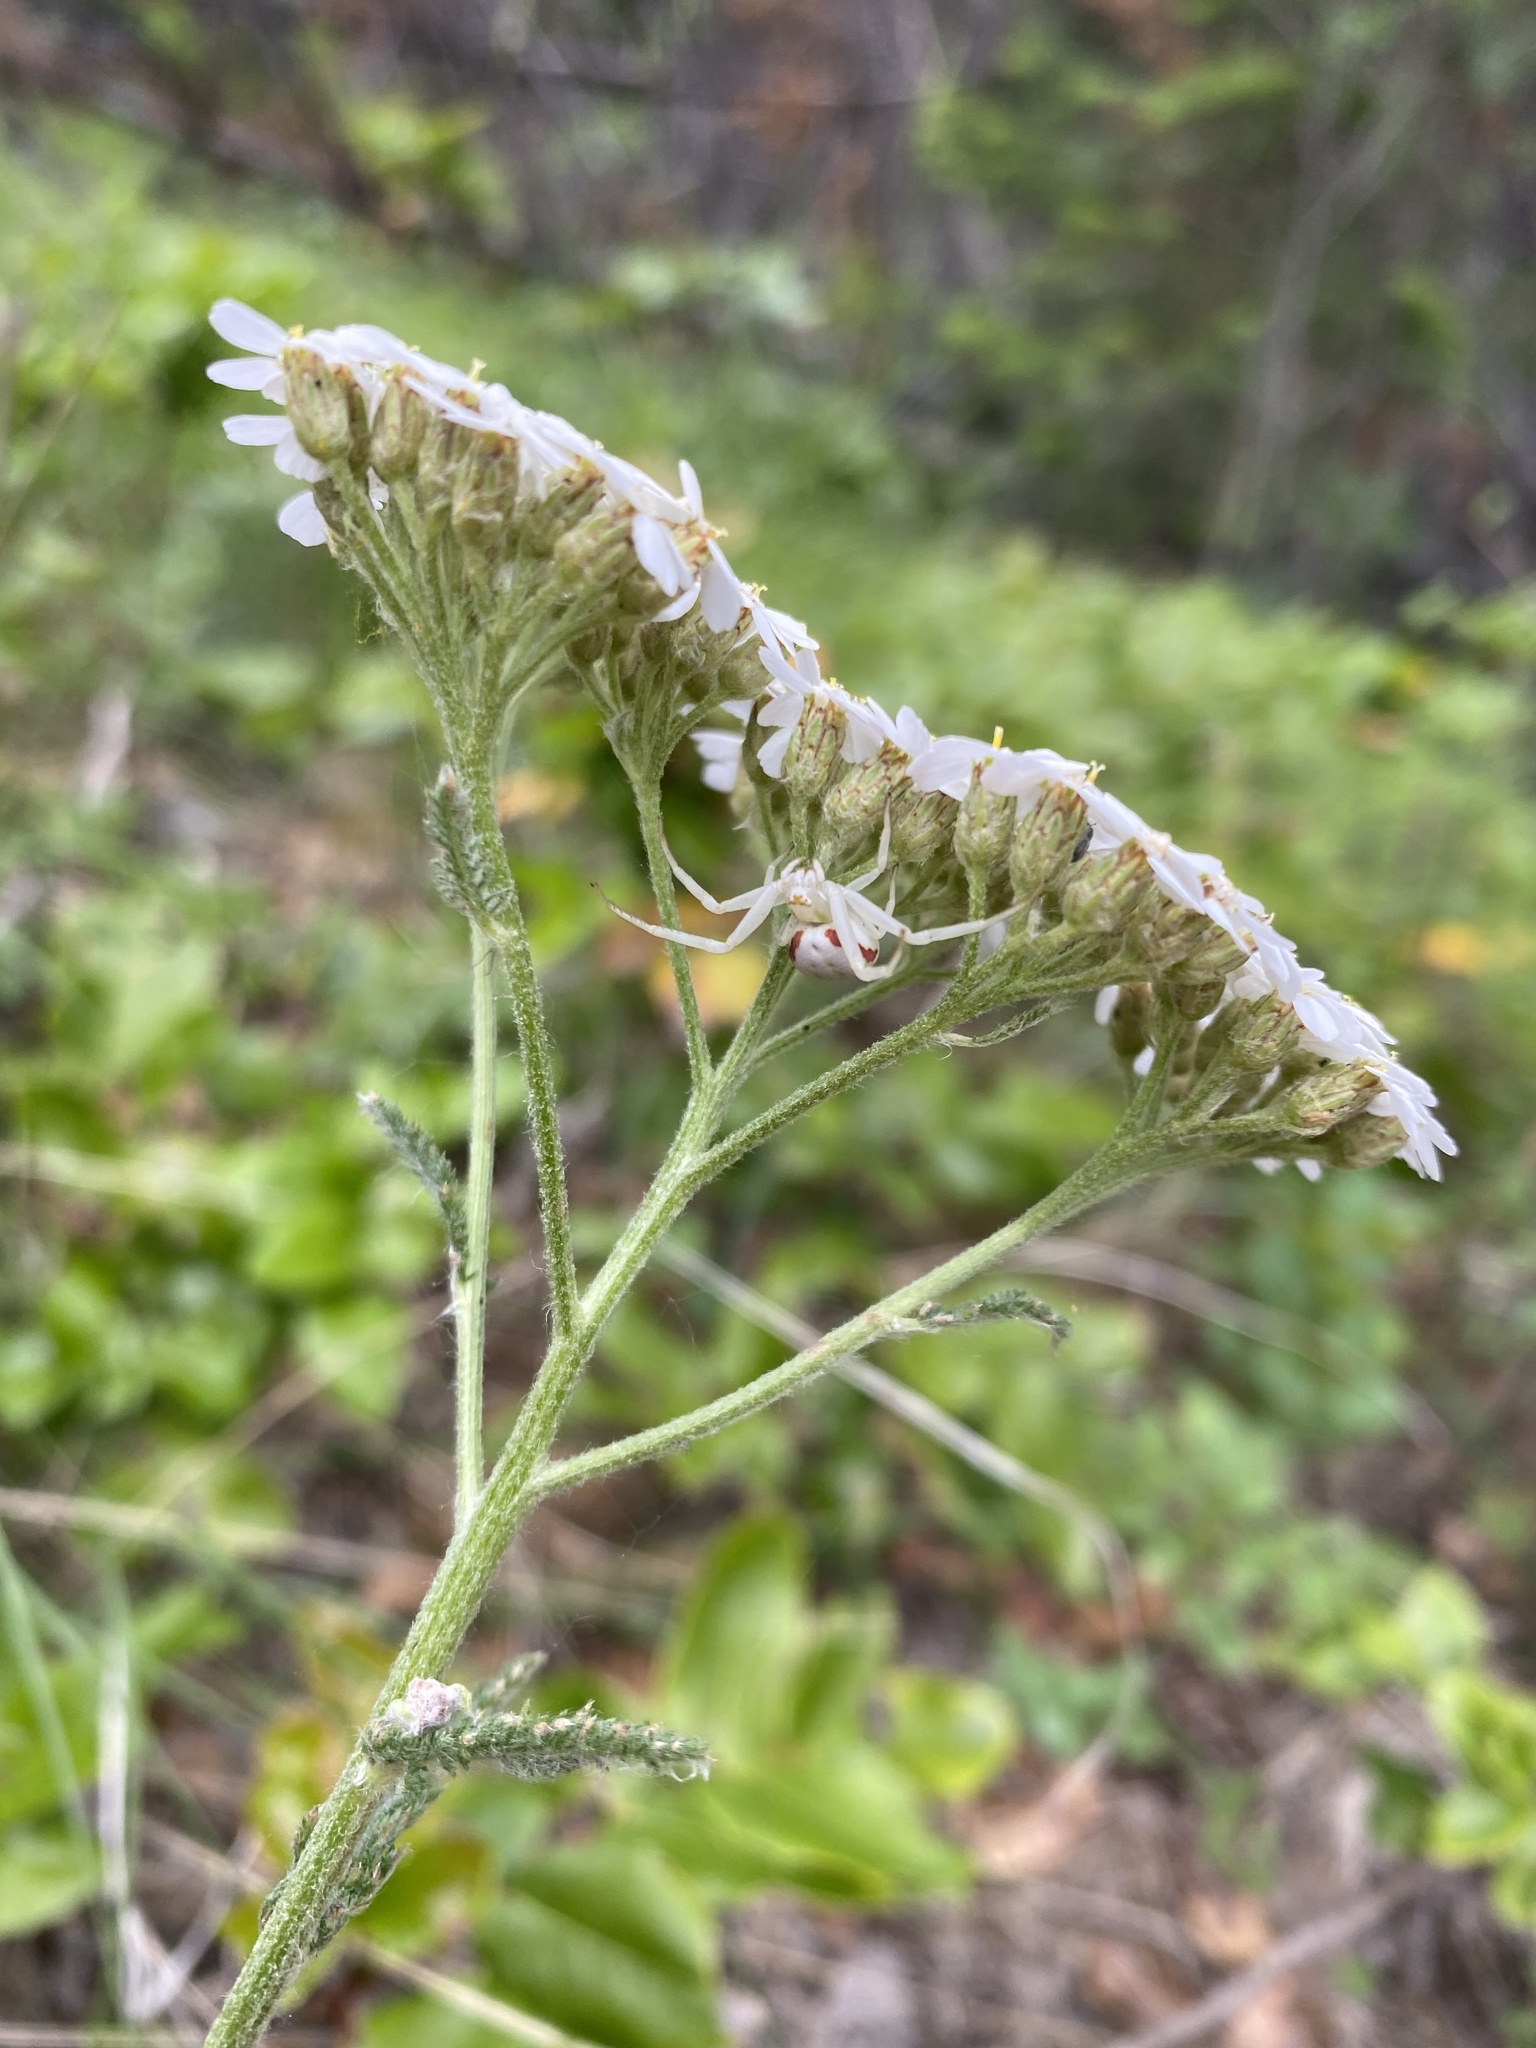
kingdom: Animalia
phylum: Arthropoda
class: Arachnida
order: Araneae
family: Thomisidae
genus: Misumena
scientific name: Misumena vatia
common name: Goldenrod crab spider
